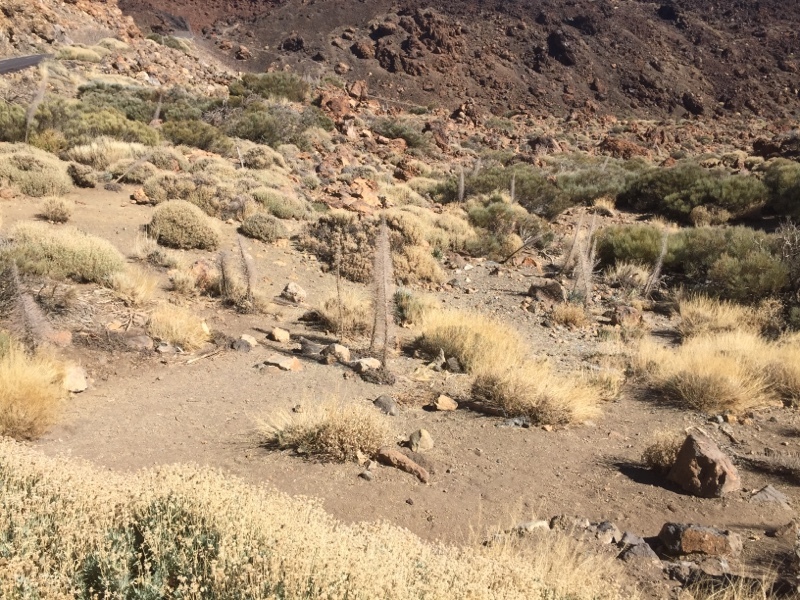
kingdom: Plantae
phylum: Tracheophyta
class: Magnoliopsida
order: Boraginales
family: Boraginaceae
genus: Echium
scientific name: Echium wildpretii
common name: Tower-of-jewels
